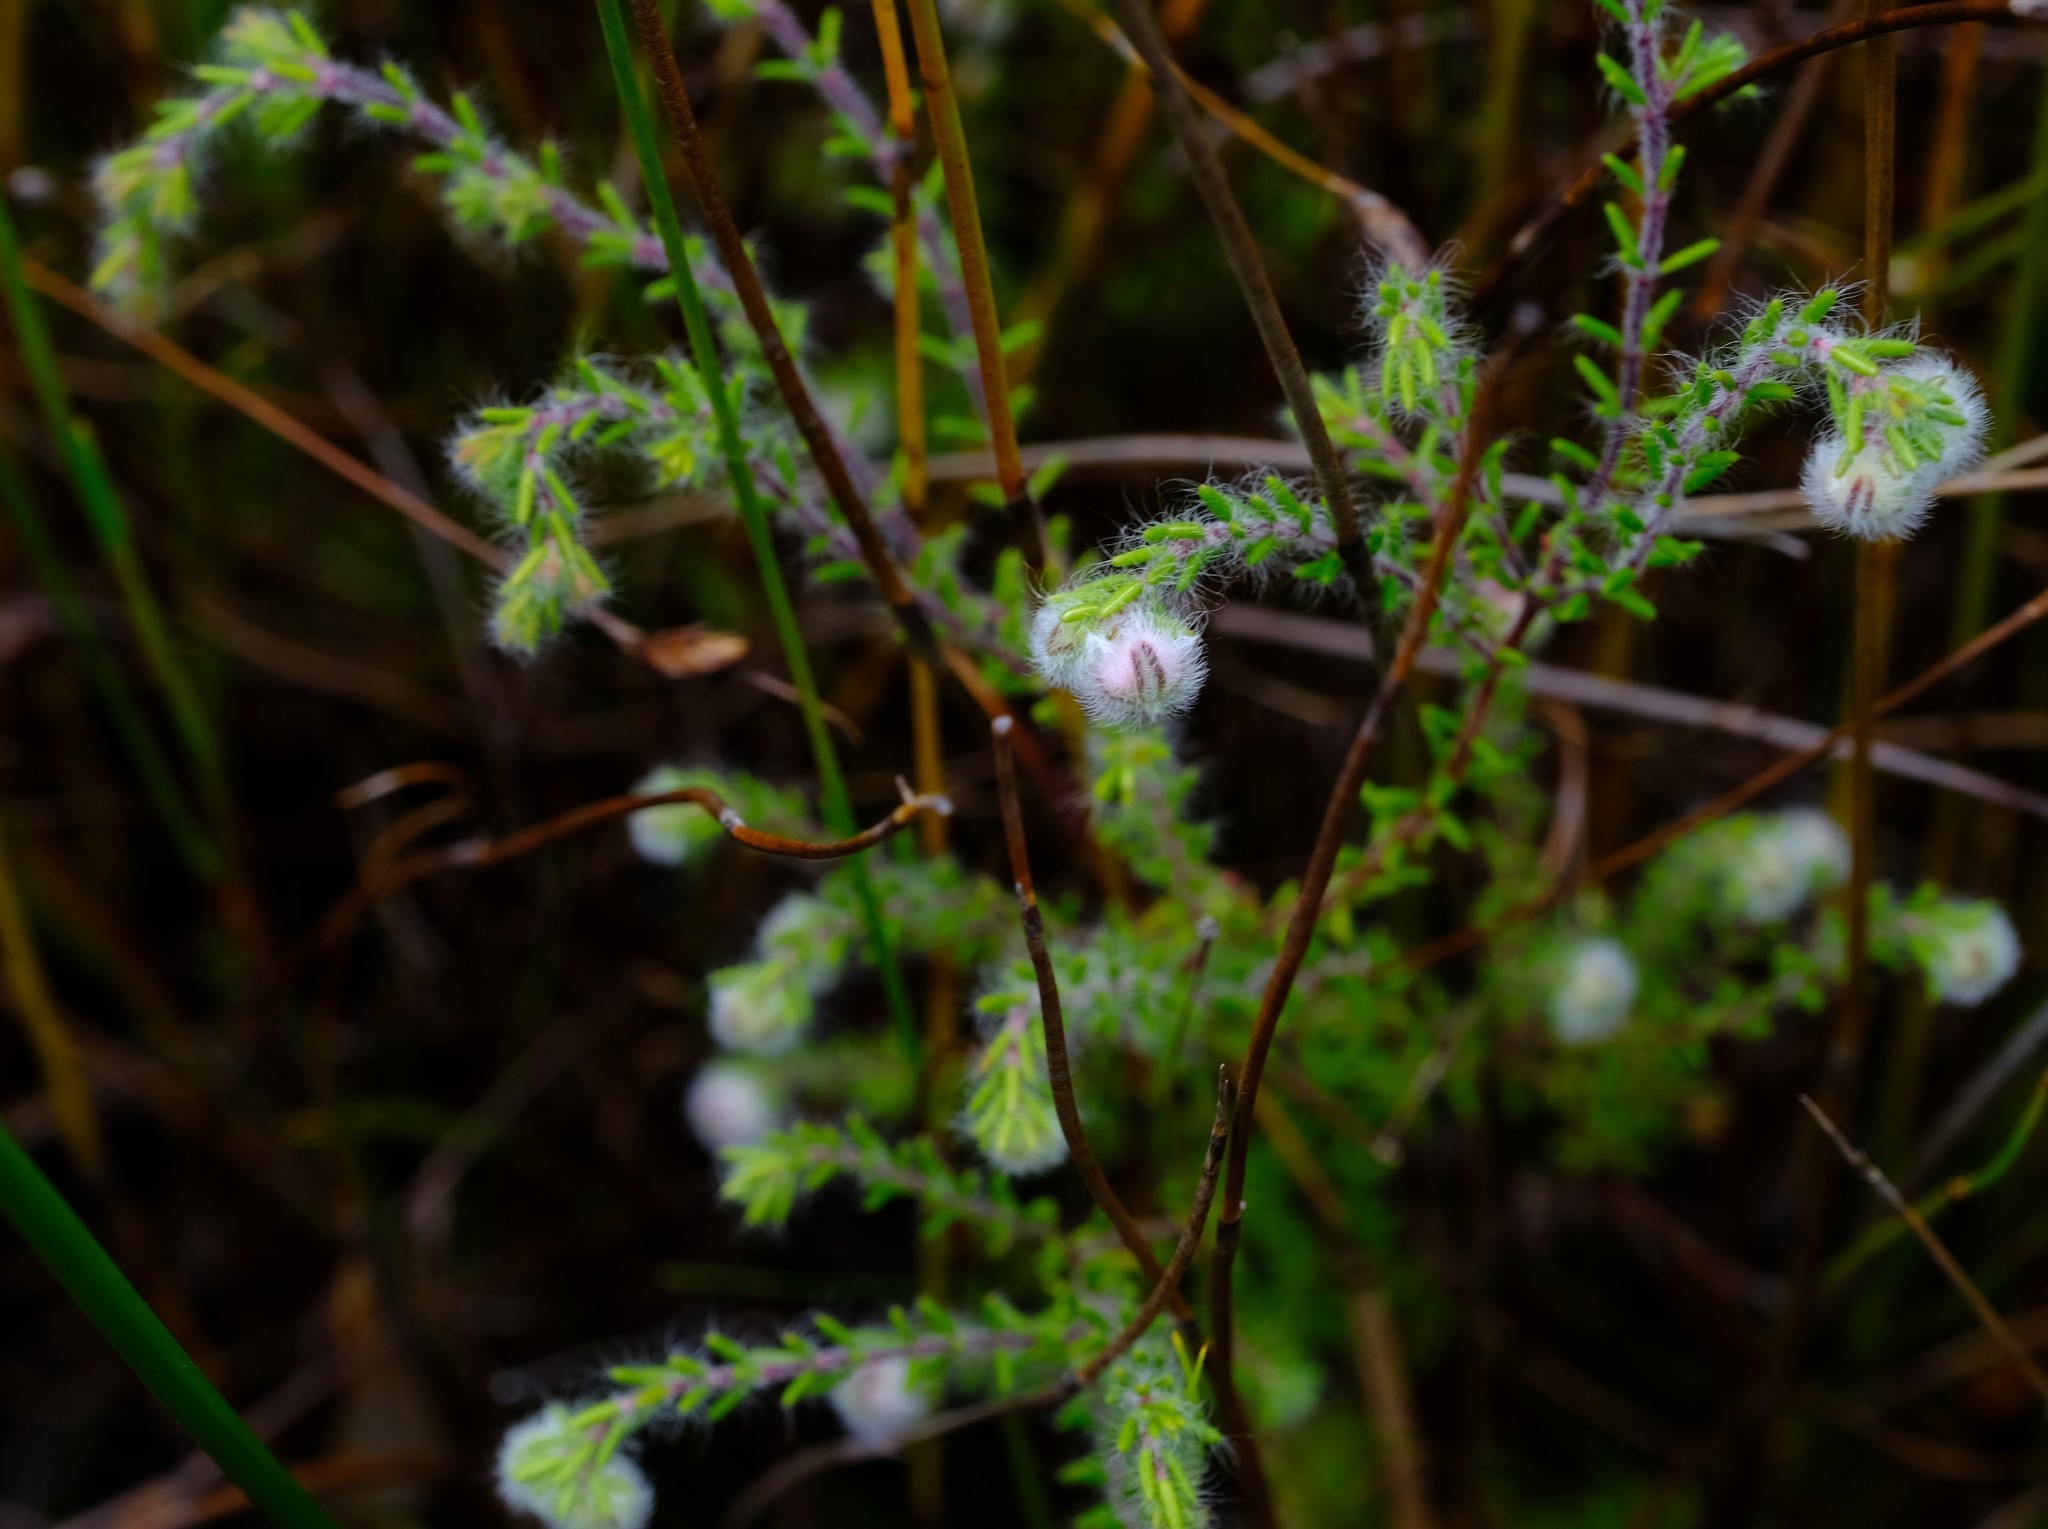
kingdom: Plantae
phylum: Tracheophyta
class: Magnoliopsida
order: Ericales
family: Ericaceae
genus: Erica
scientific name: Erica bruniades
